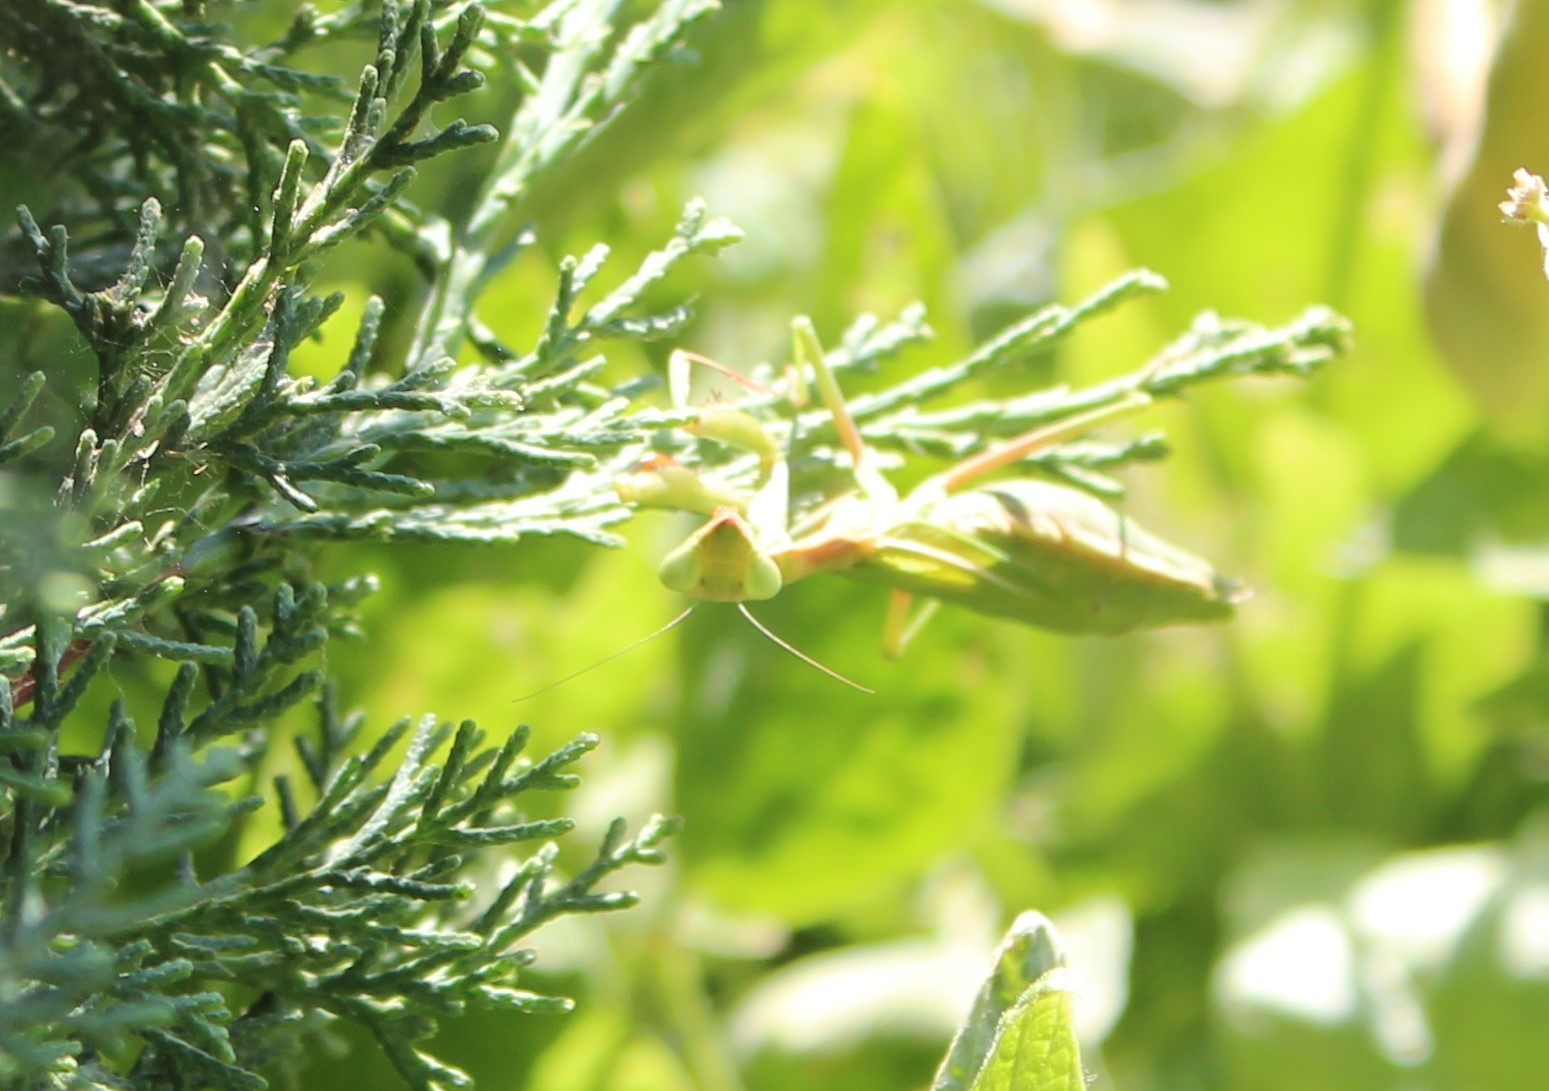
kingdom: Animalia
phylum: Arthropoda
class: Insecta
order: Mantodea
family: Eremiaphilidae
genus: Iris
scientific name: Iris oratoria
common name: Mediterranean mantis
